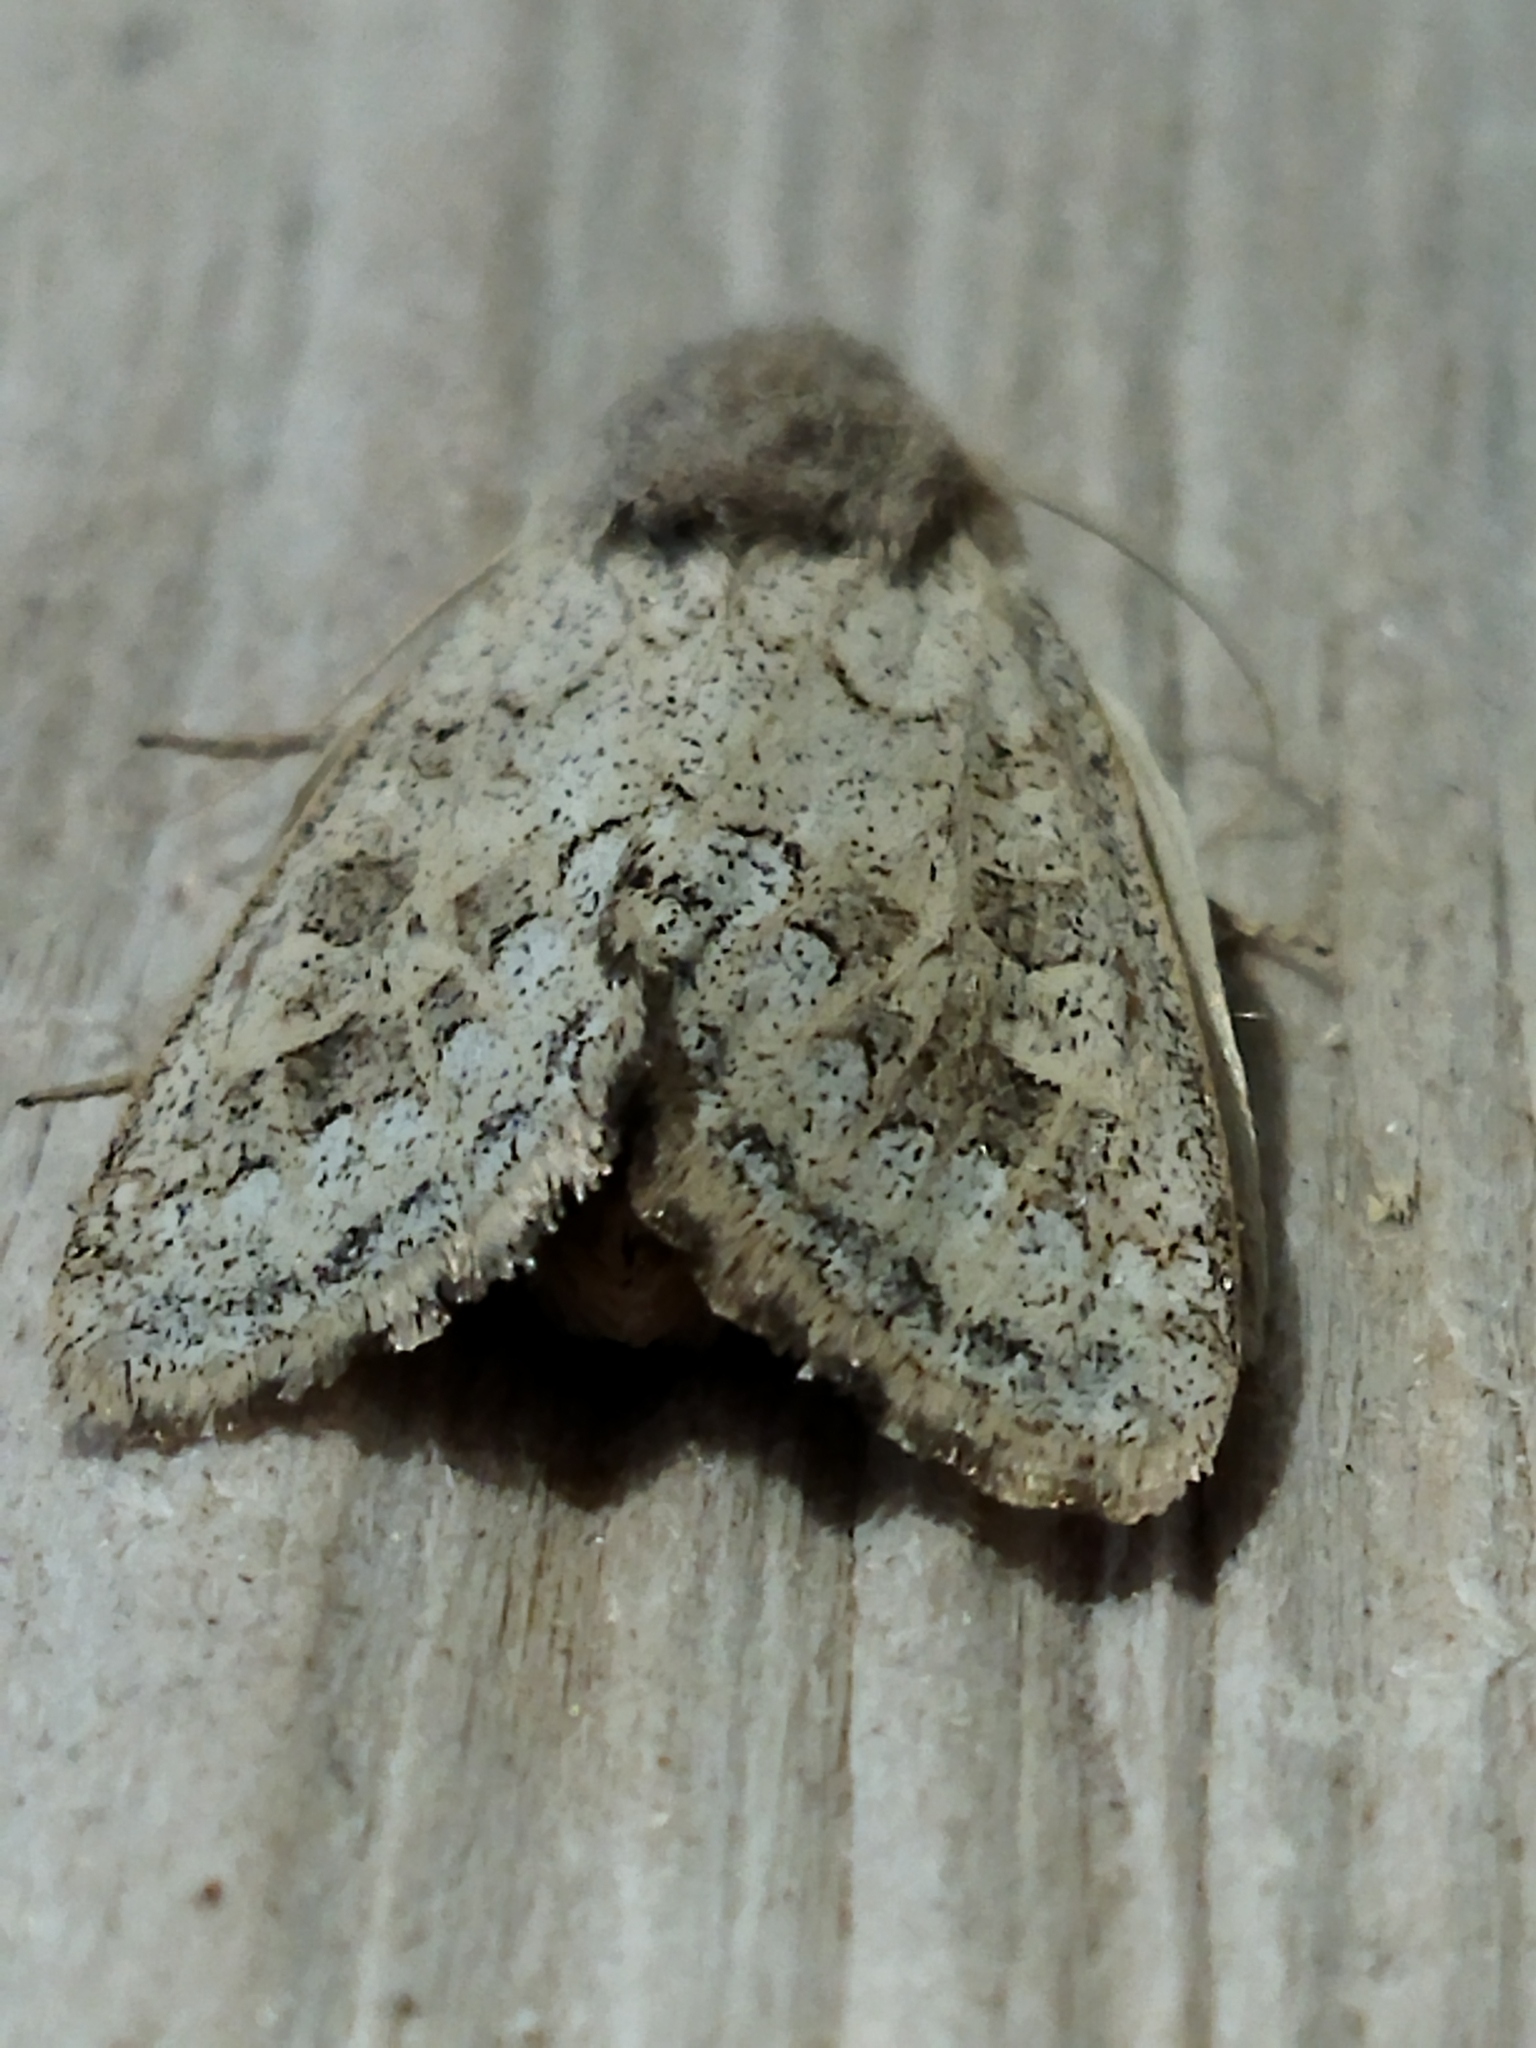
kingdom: Animalia
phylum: Arthropoda
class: Insecta
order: Lepidoptera
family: Noctuidae
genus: Episema
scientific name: Episema lederi
